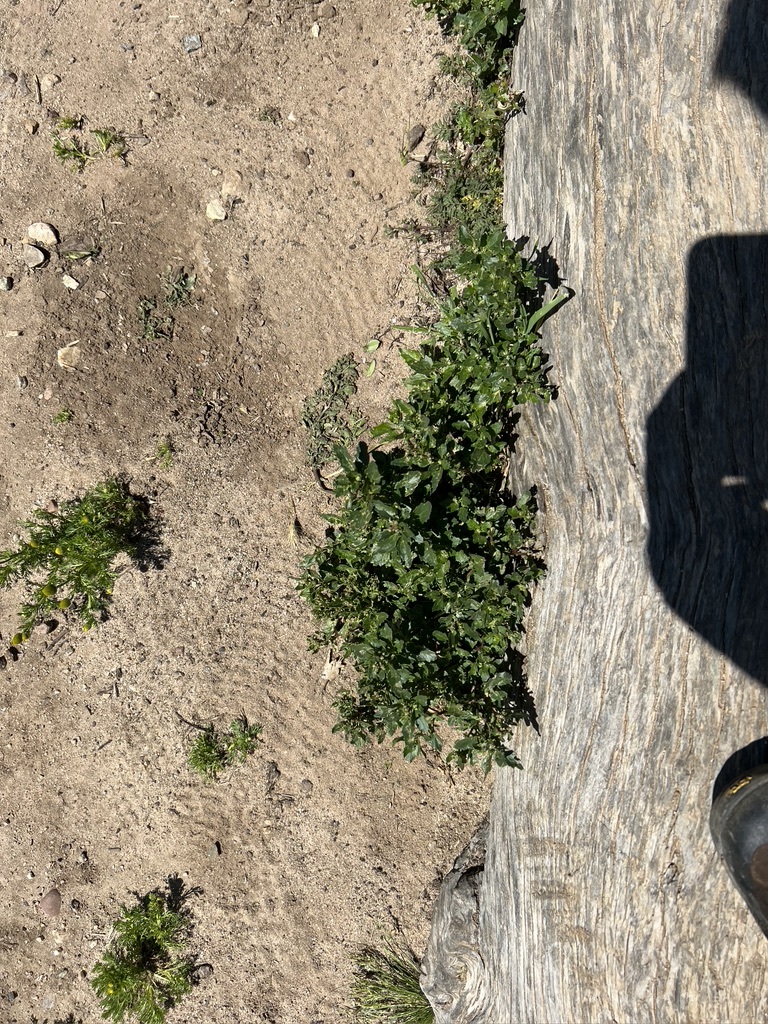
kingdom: Plantae
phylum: Tracheophyta
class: Magnoliopsida
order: Caryophyllales
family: Amaranthaceae
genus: Chenopodiastrum
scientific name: Chenopodiastrum murale
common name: Sowbane
